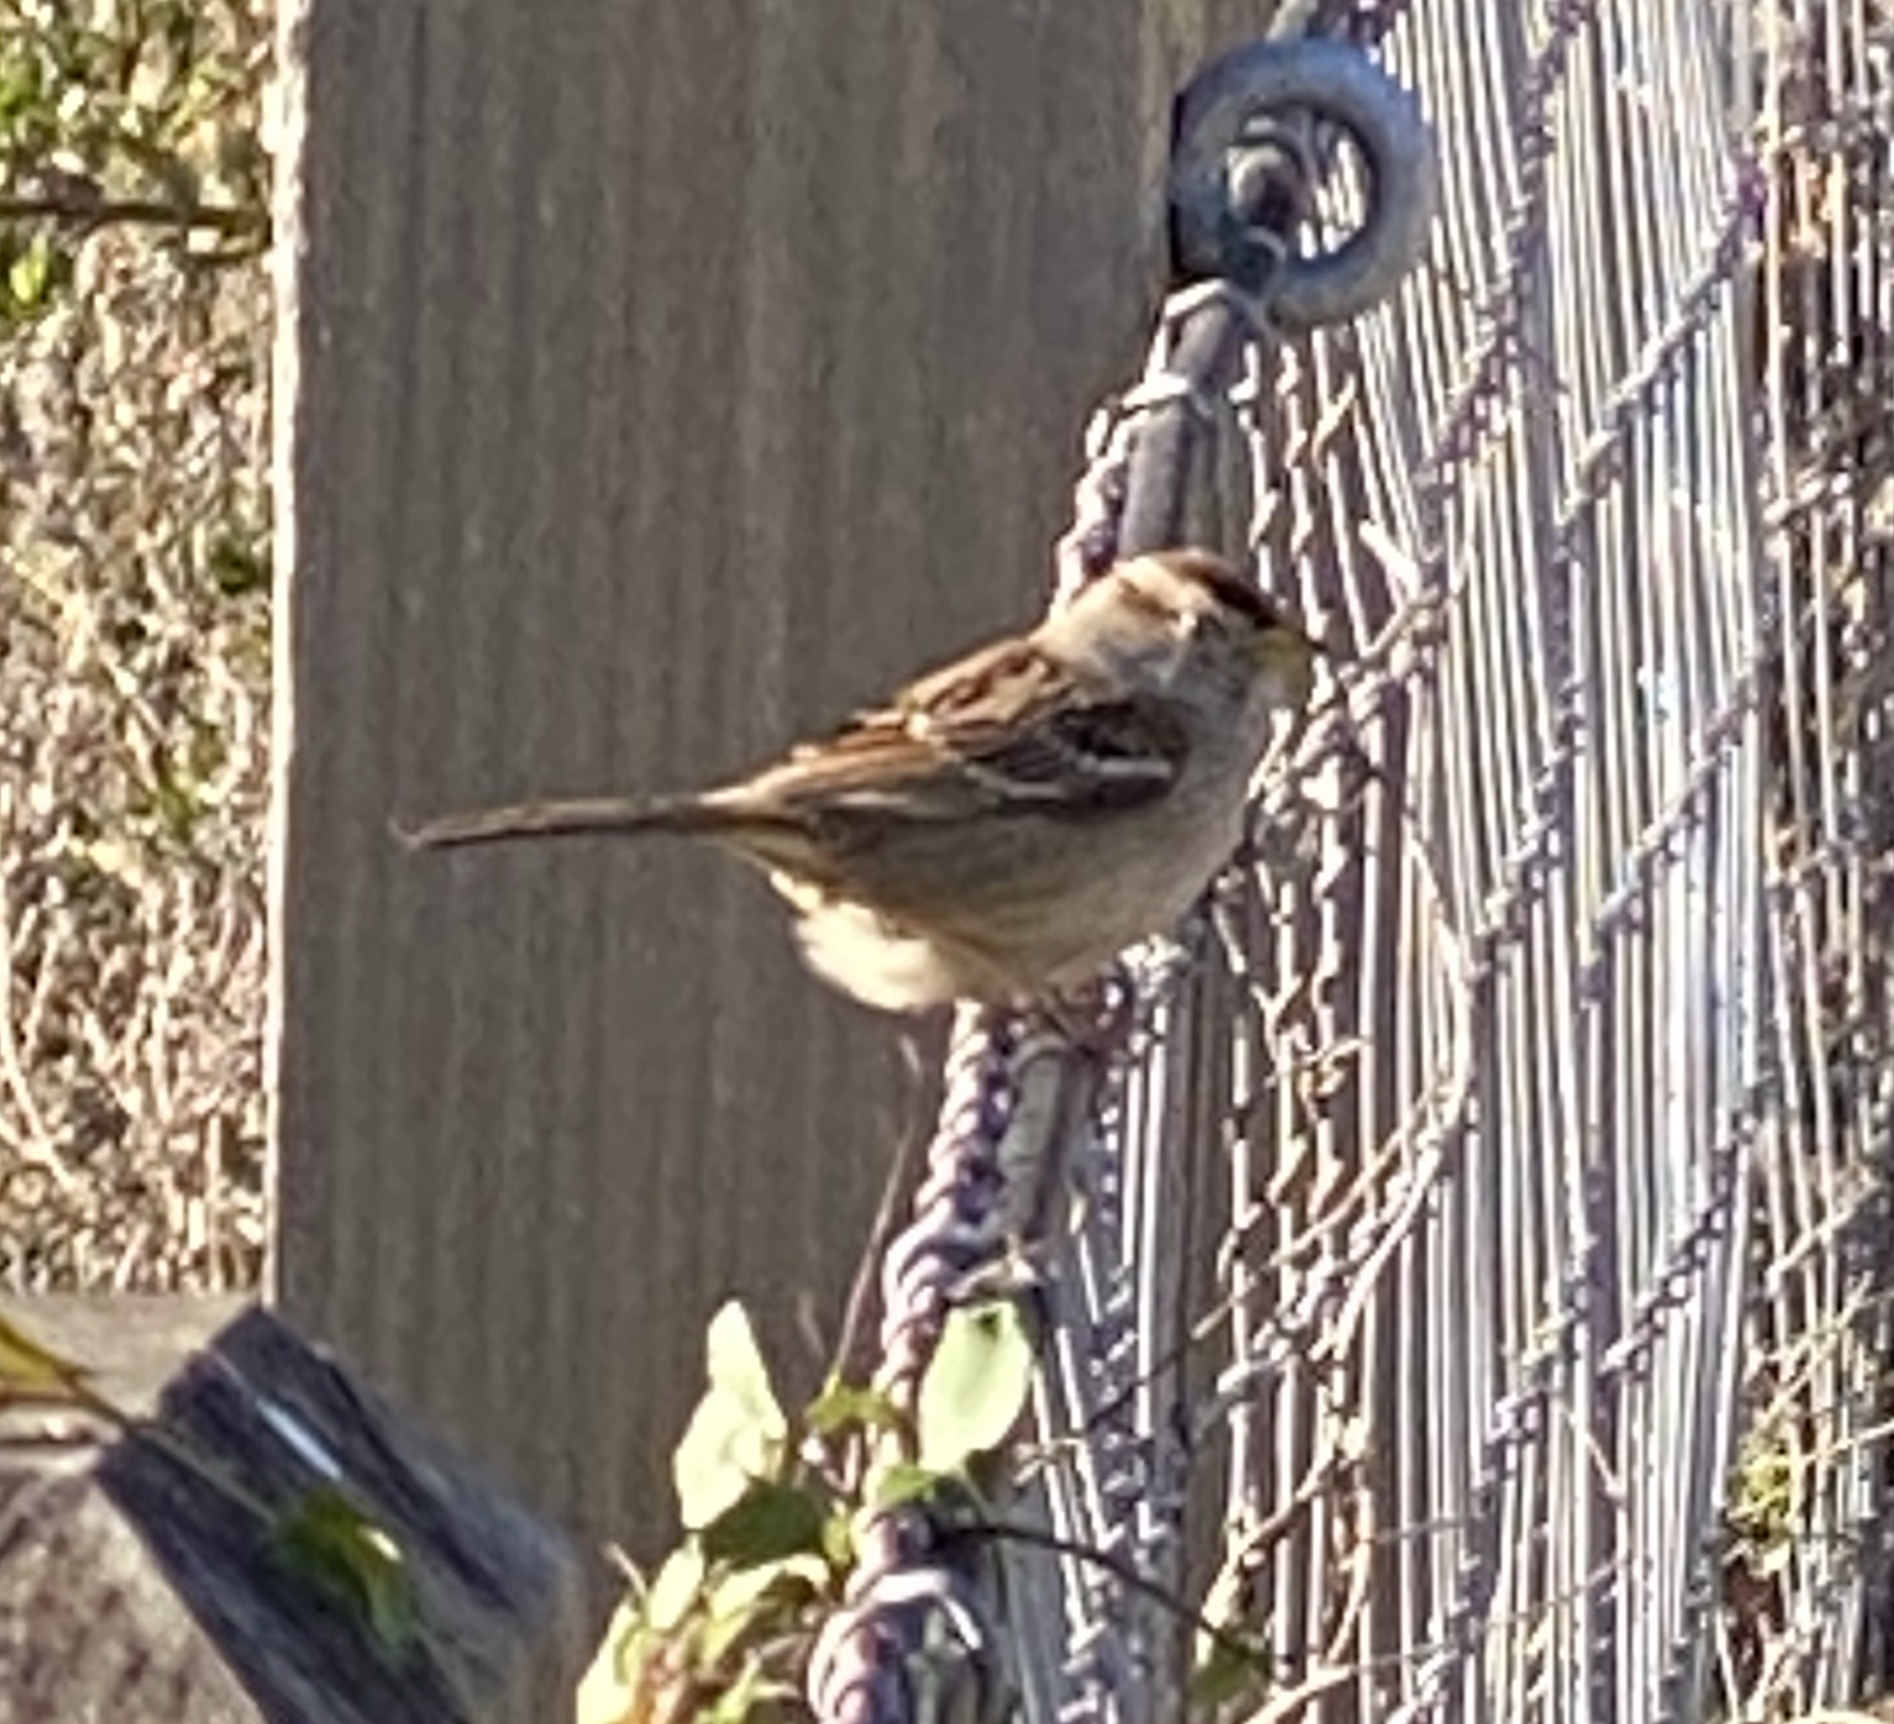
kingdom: Animalia
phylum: Chordata
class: Aves
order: Passeriformes
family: Passerellidae
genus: Zonotrichia
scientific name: Zonotrichia leucophrys
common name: White-crowned sparrow
